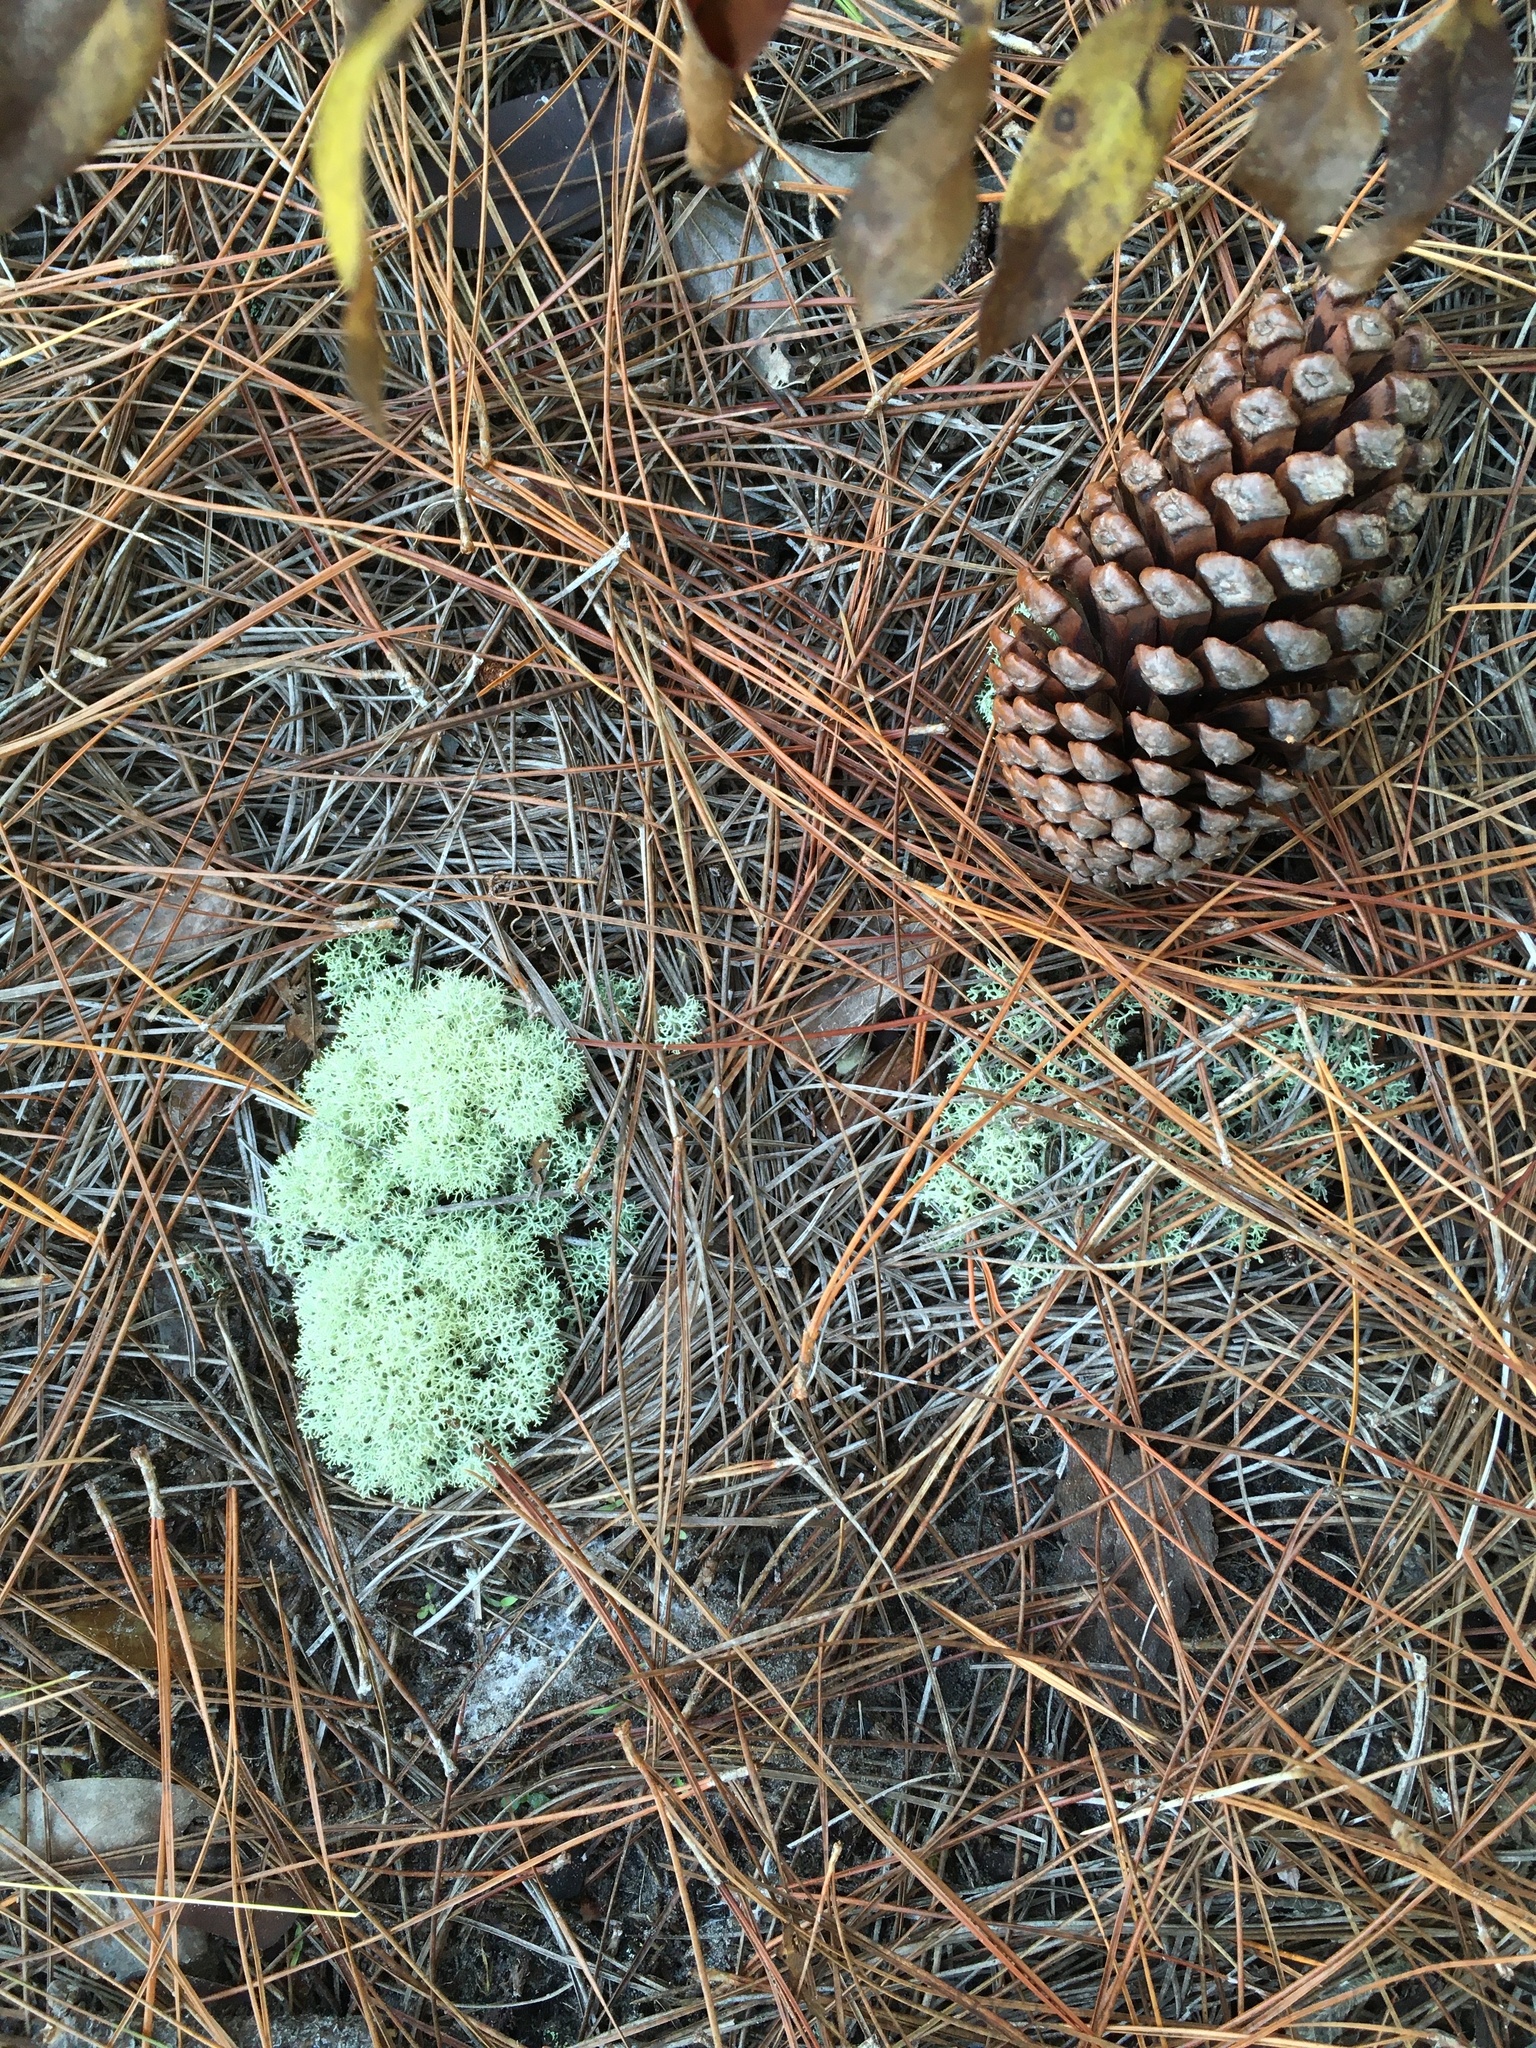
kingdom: Fungi
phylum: Ascomycota
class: Lecanoromycetes
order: Lecanorales
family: Cladoniaceae
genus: Cladonia
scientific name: Cladonia evansii
